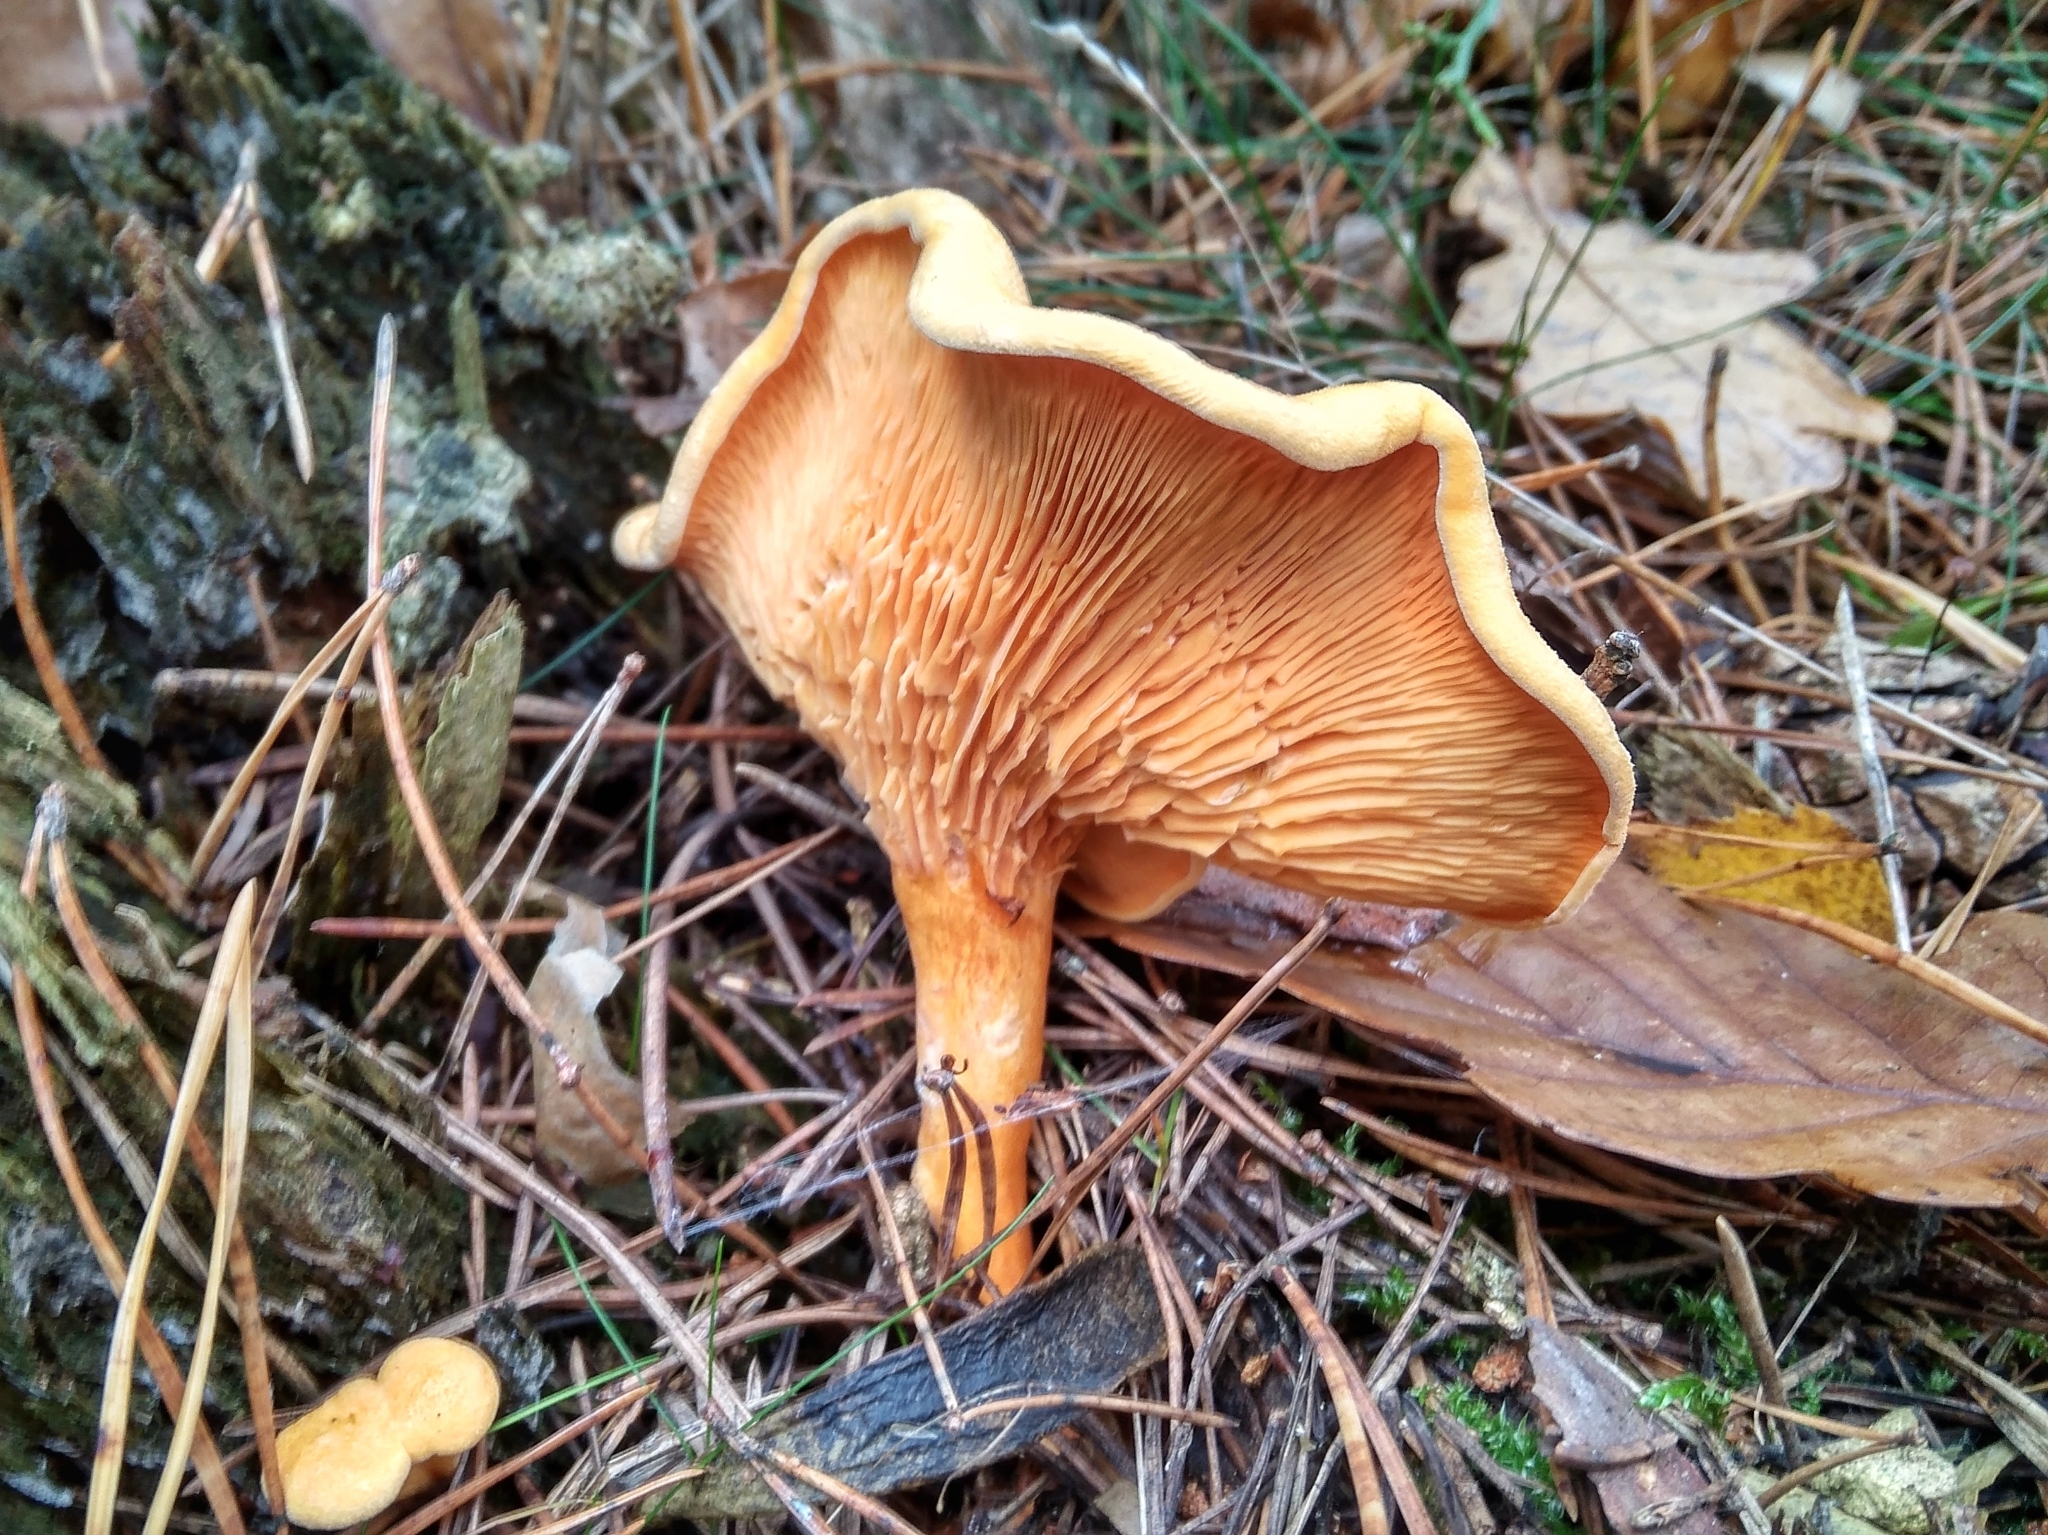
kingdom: Fungi
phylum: Basidiomycota
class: Agaricomycetes
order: Boletales
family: Hygrophoropsidaceae
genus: Hygrophoropsis
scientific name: Hygrophoropsis aurantiaca
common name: False chanterelle
